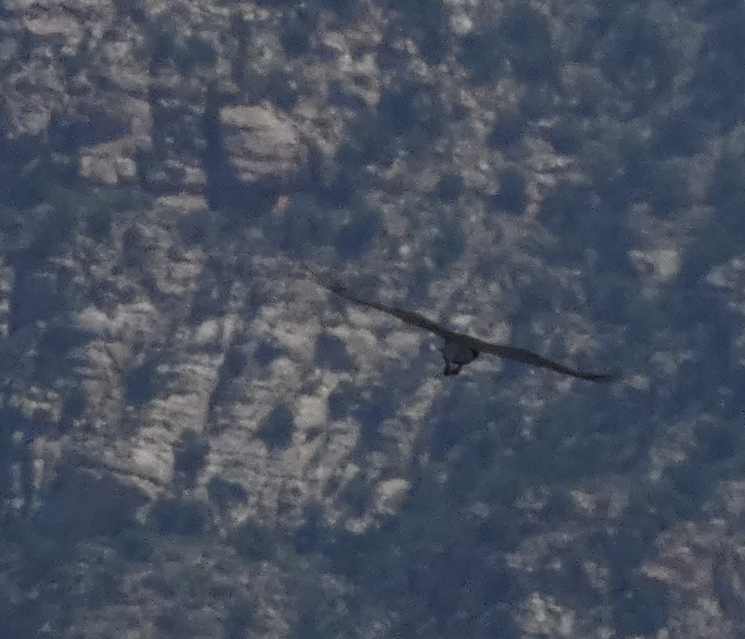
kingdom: Animalia
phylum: Chordata
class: Aves
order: Passeriformes
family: Corvidae
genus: Corvus
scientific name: Corvus corax
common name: Common raven
